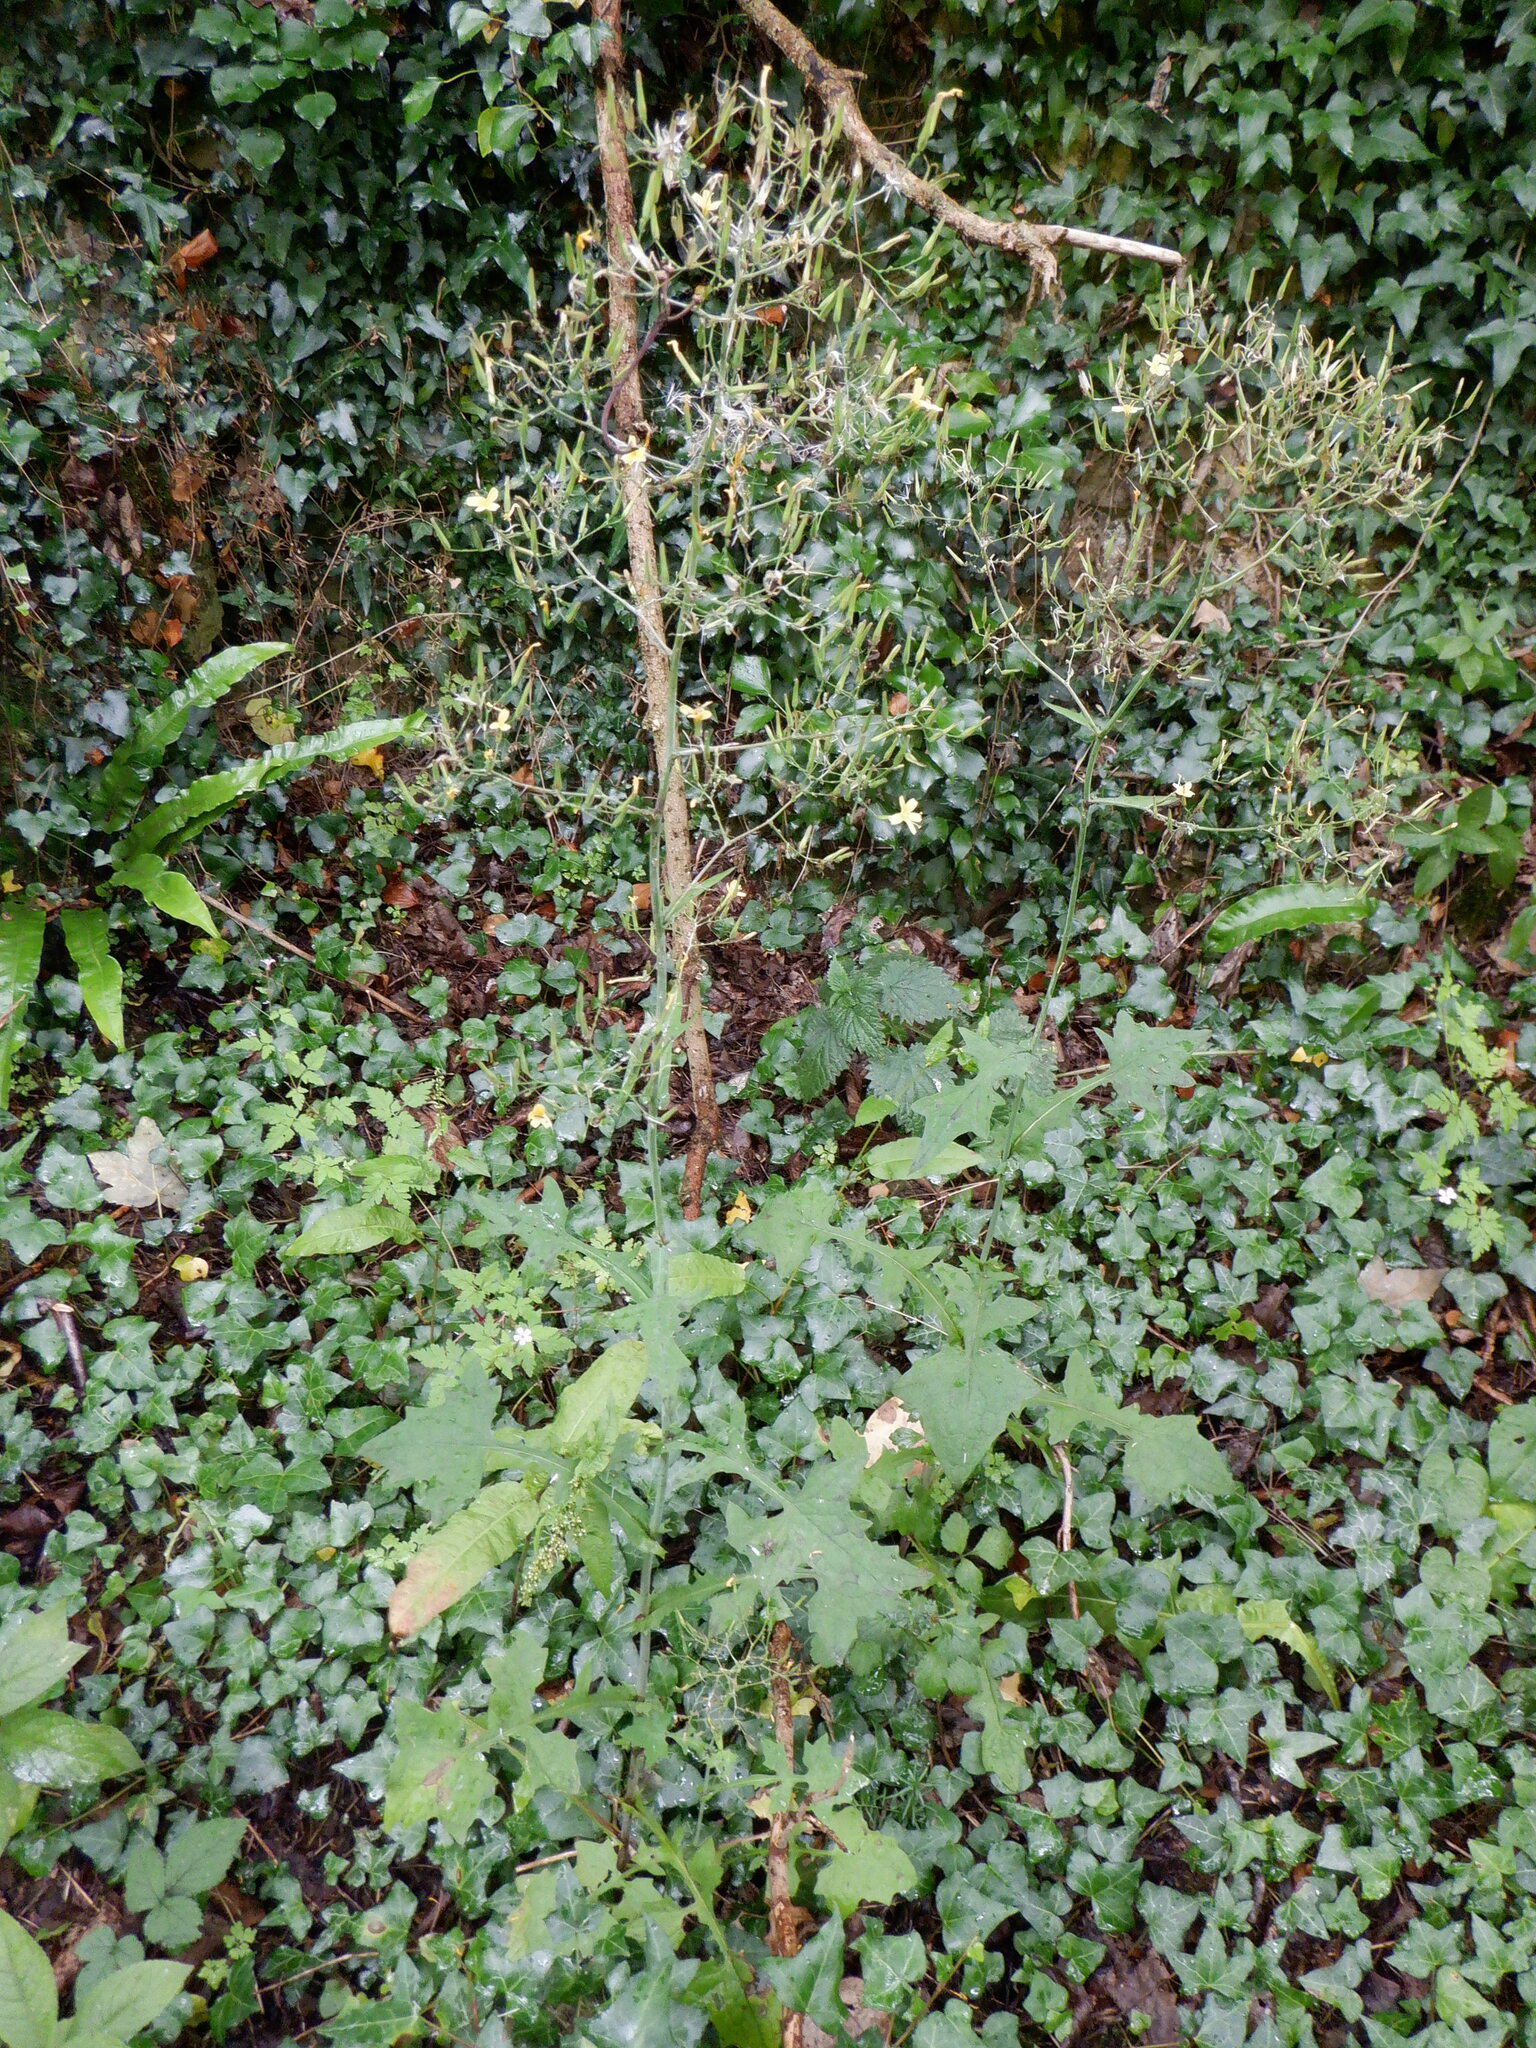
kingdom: Plantae
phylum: Tracheophyta
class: Magnoliopsida
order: Asterales
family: Asteraceae
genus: Mycelis
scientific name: Mycelis muralis
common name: Wall lettuce
